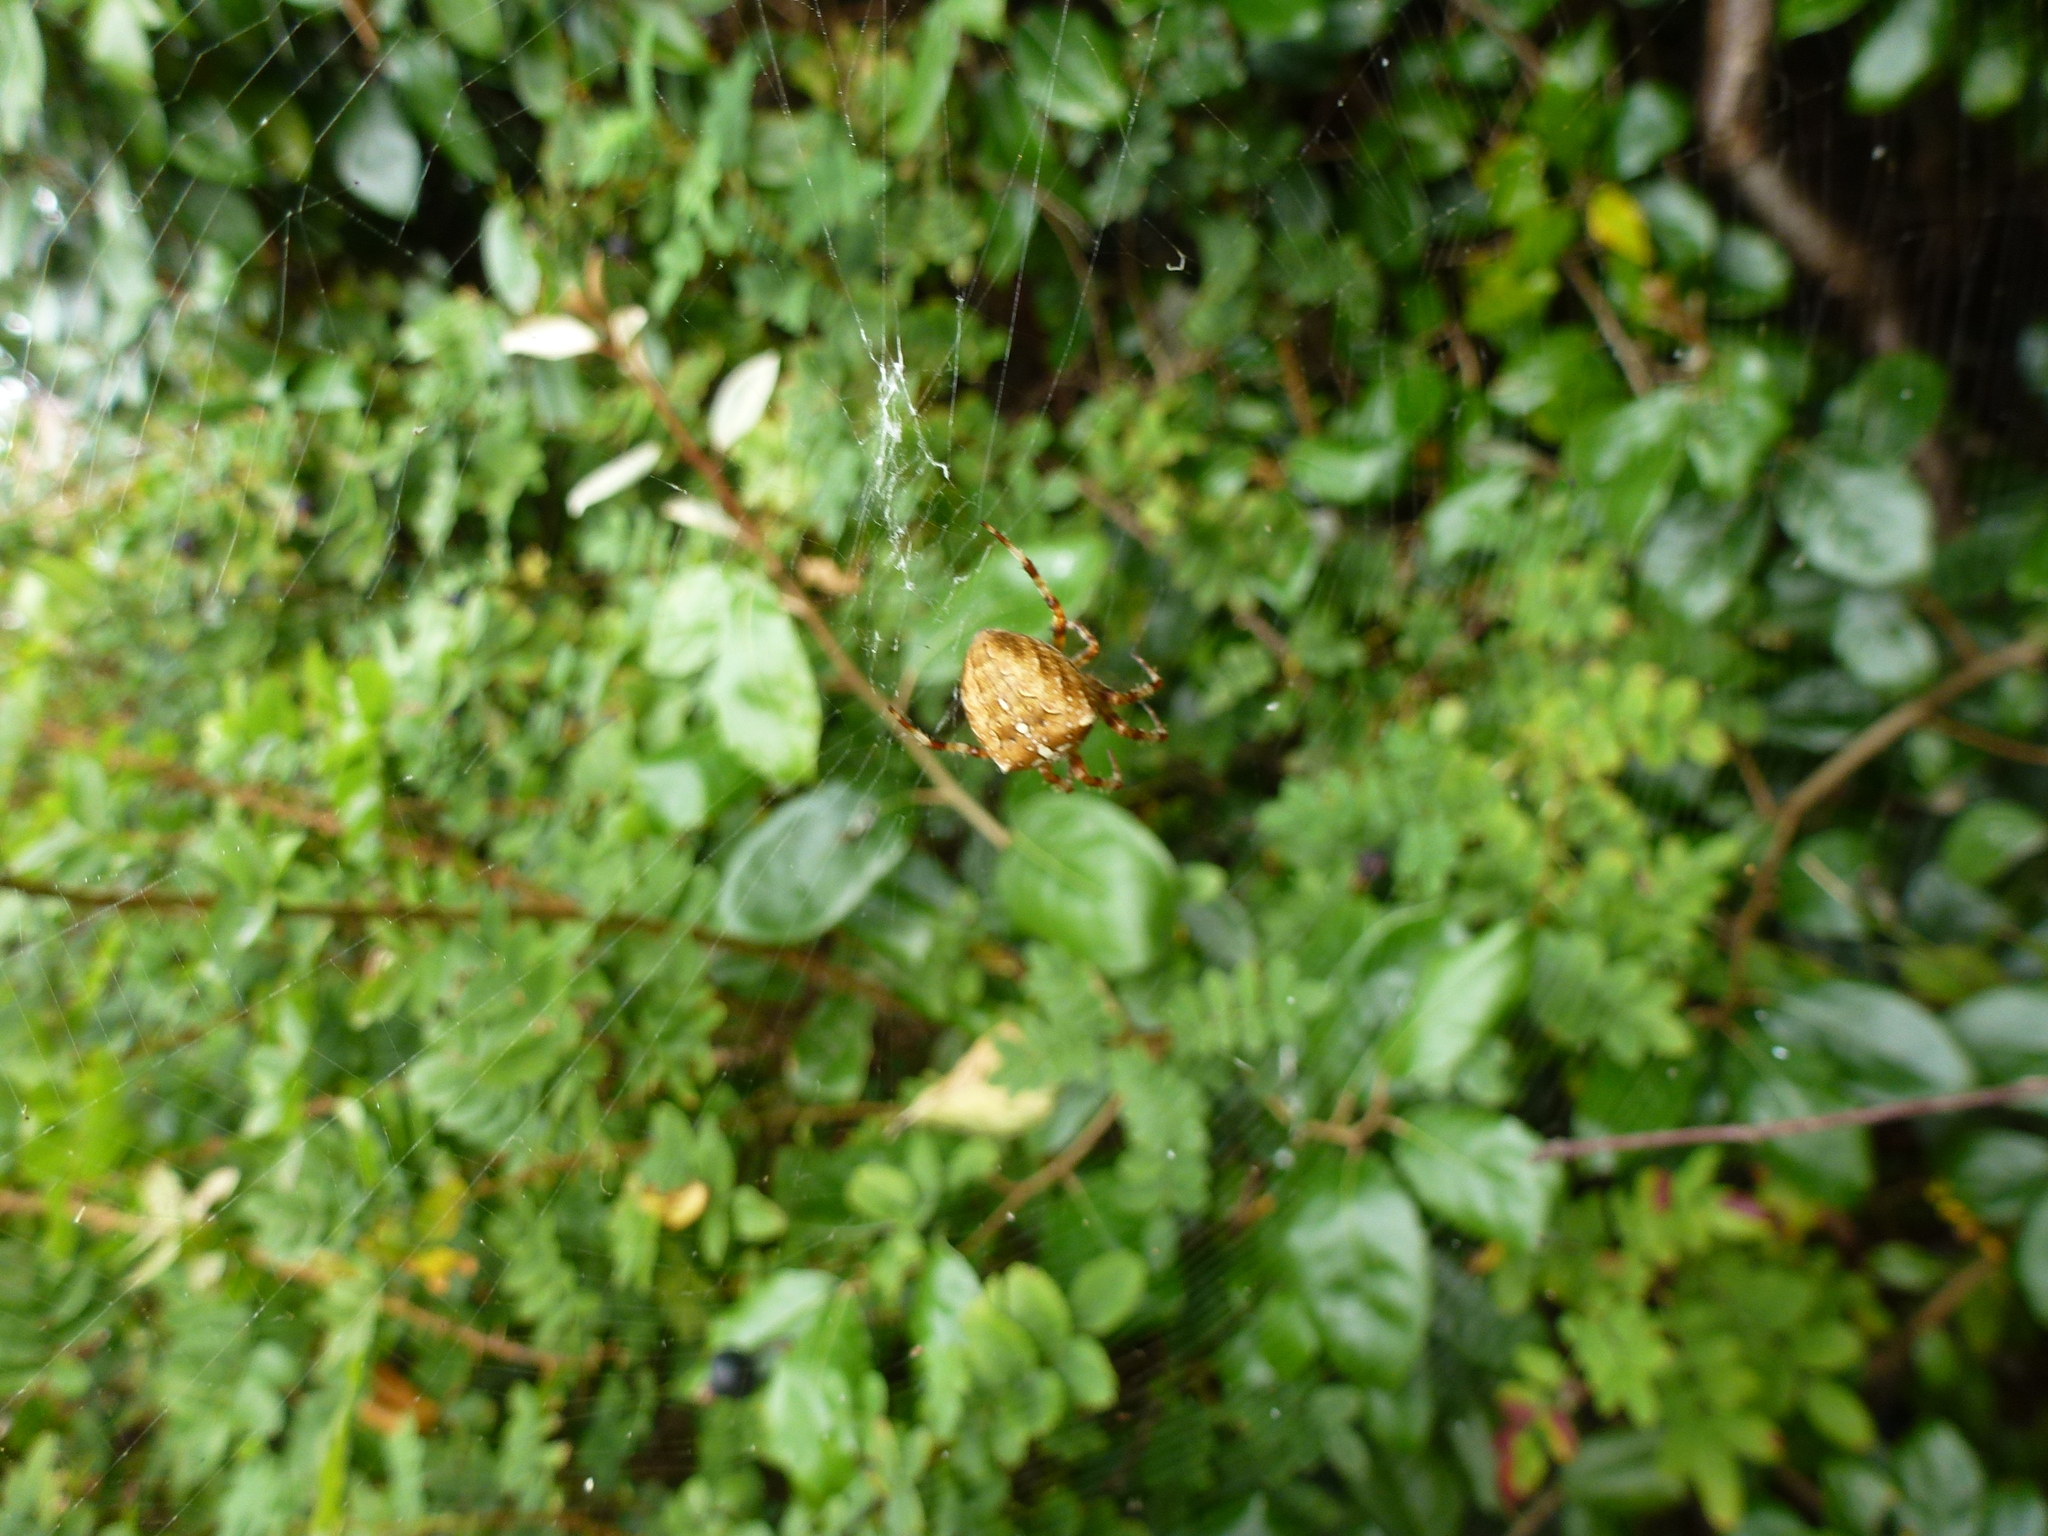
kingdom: Animalia
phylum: Arthropoda
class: Arachnida
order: Araneae
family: Araneidae
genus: Araneus
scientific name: Araneus diadematus
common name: Cross orbweaver
